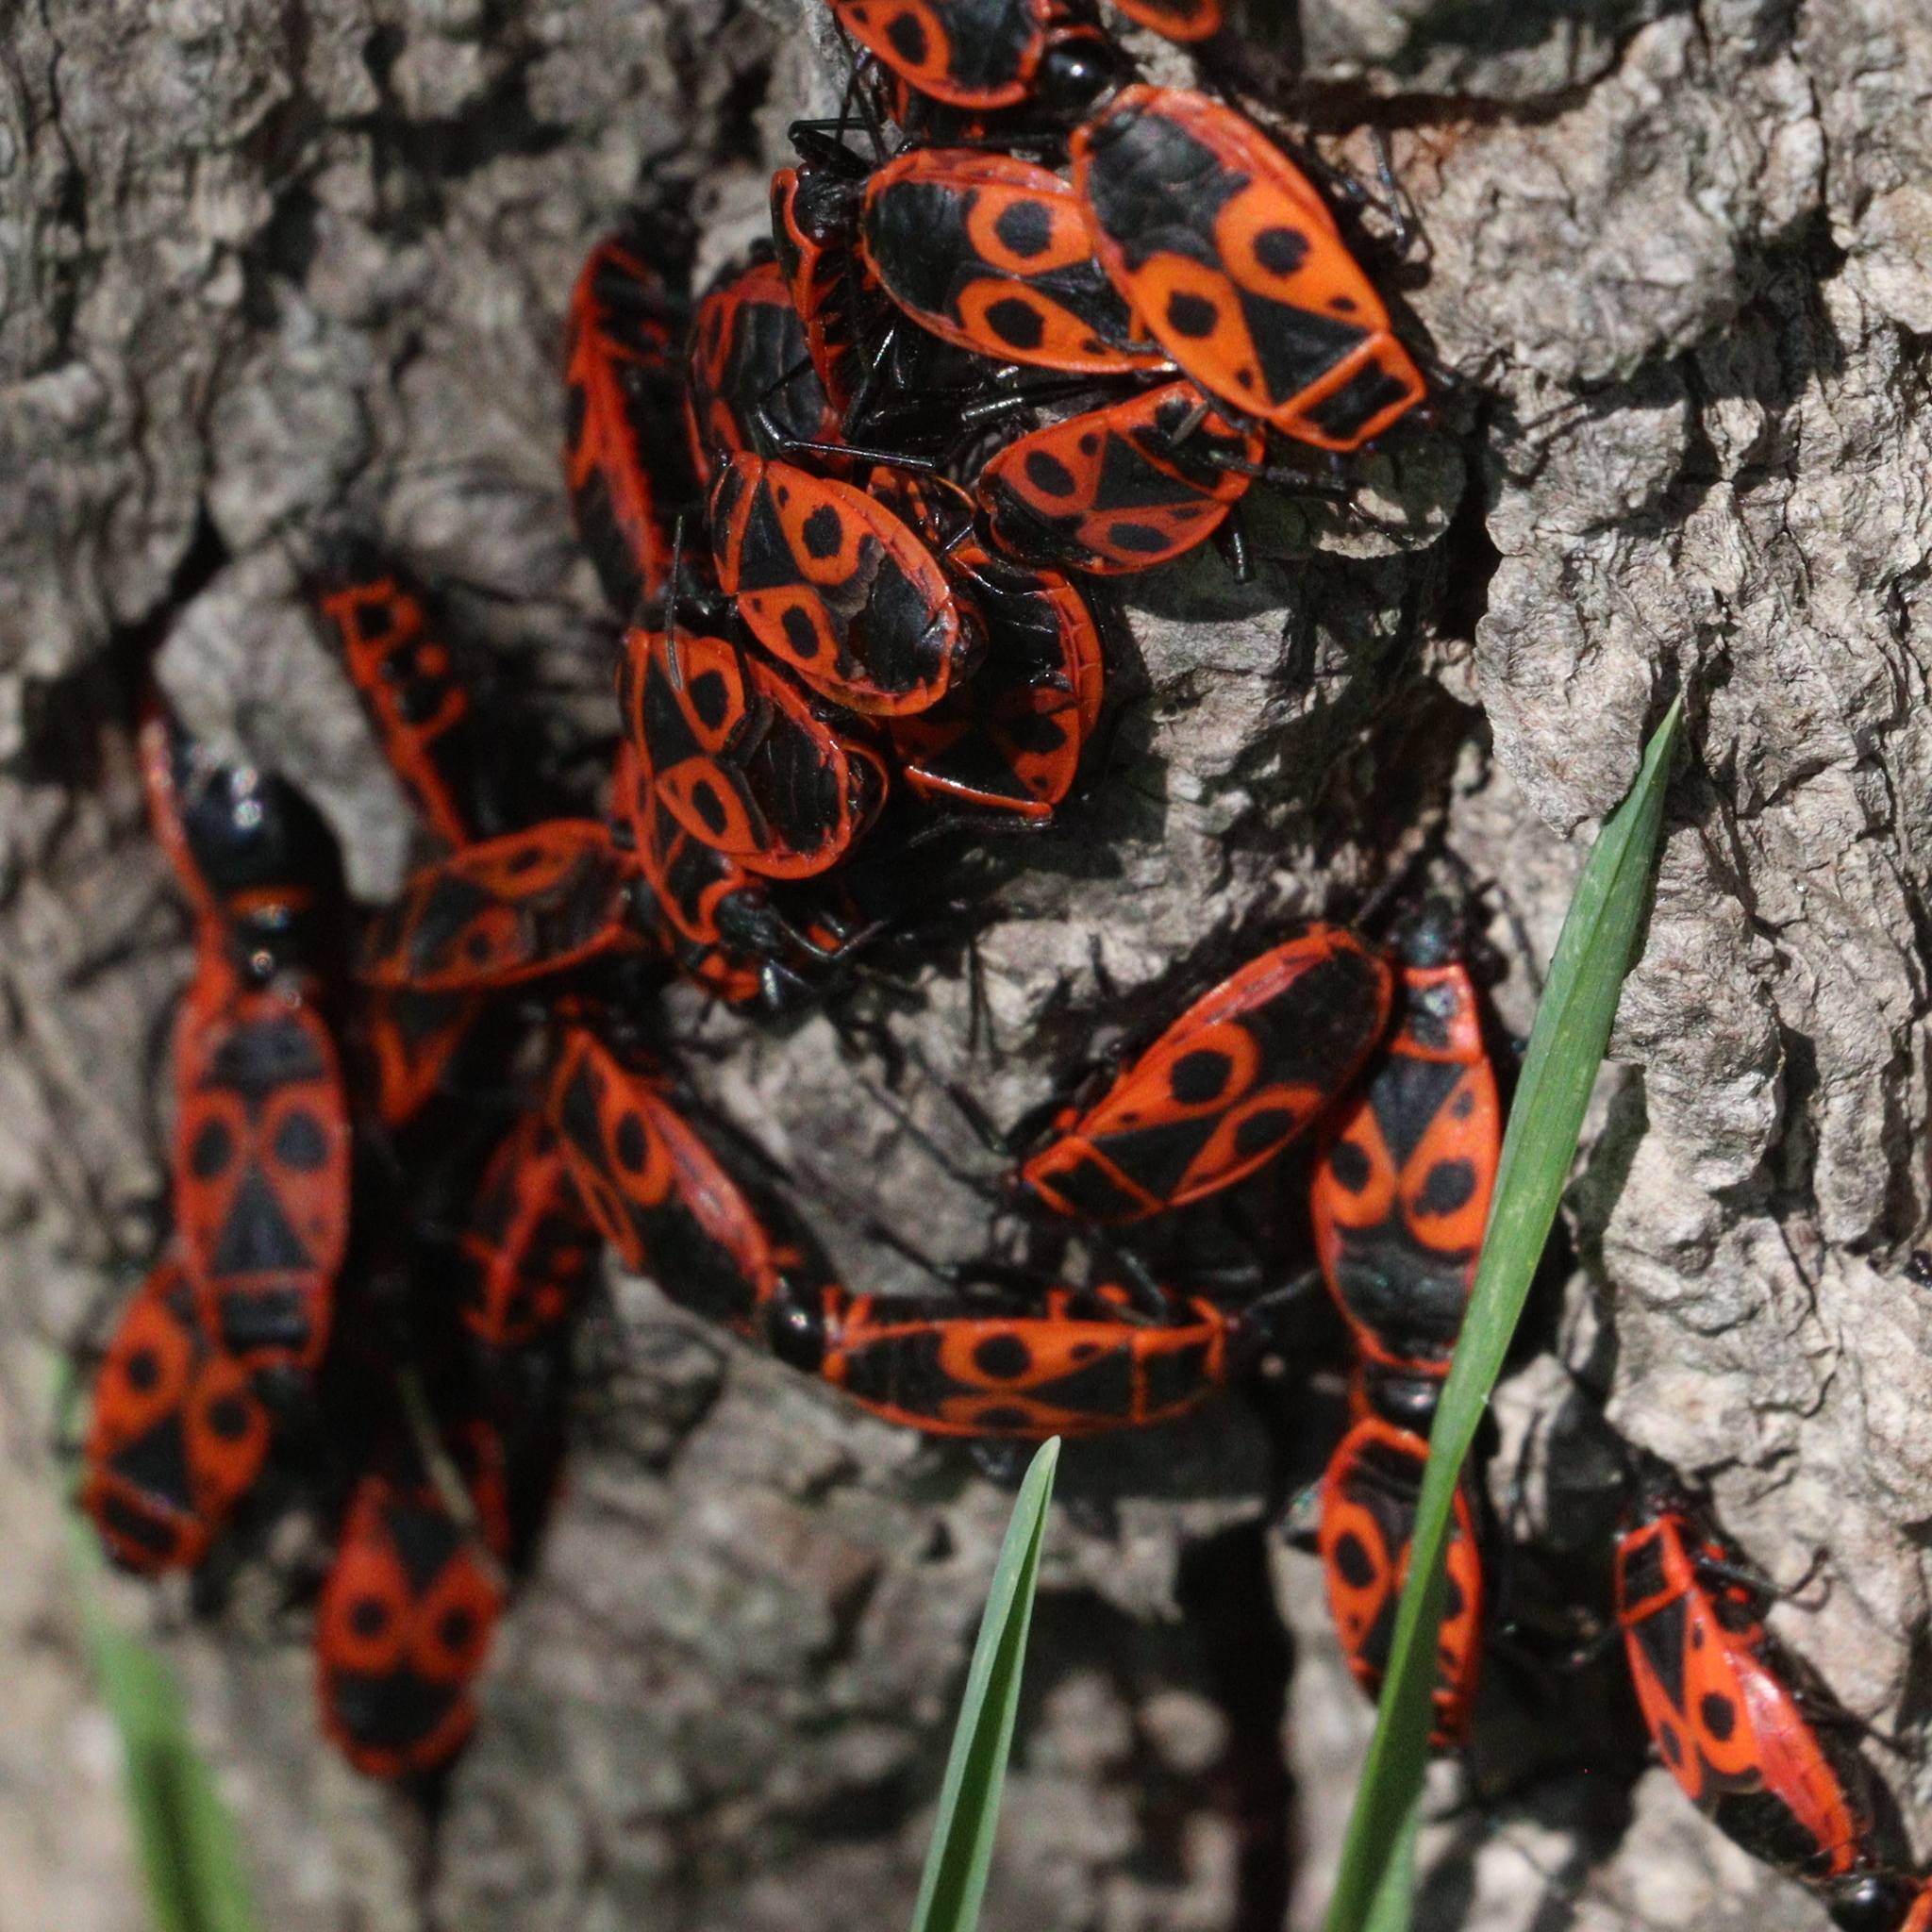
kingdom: Animalia
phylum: Arthropoda
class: Insecta
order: Hemiptera
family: Pyrrhocoridae
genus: Pyrrhocoris
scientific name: Pyrrhocoris apterus
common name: Firebug
